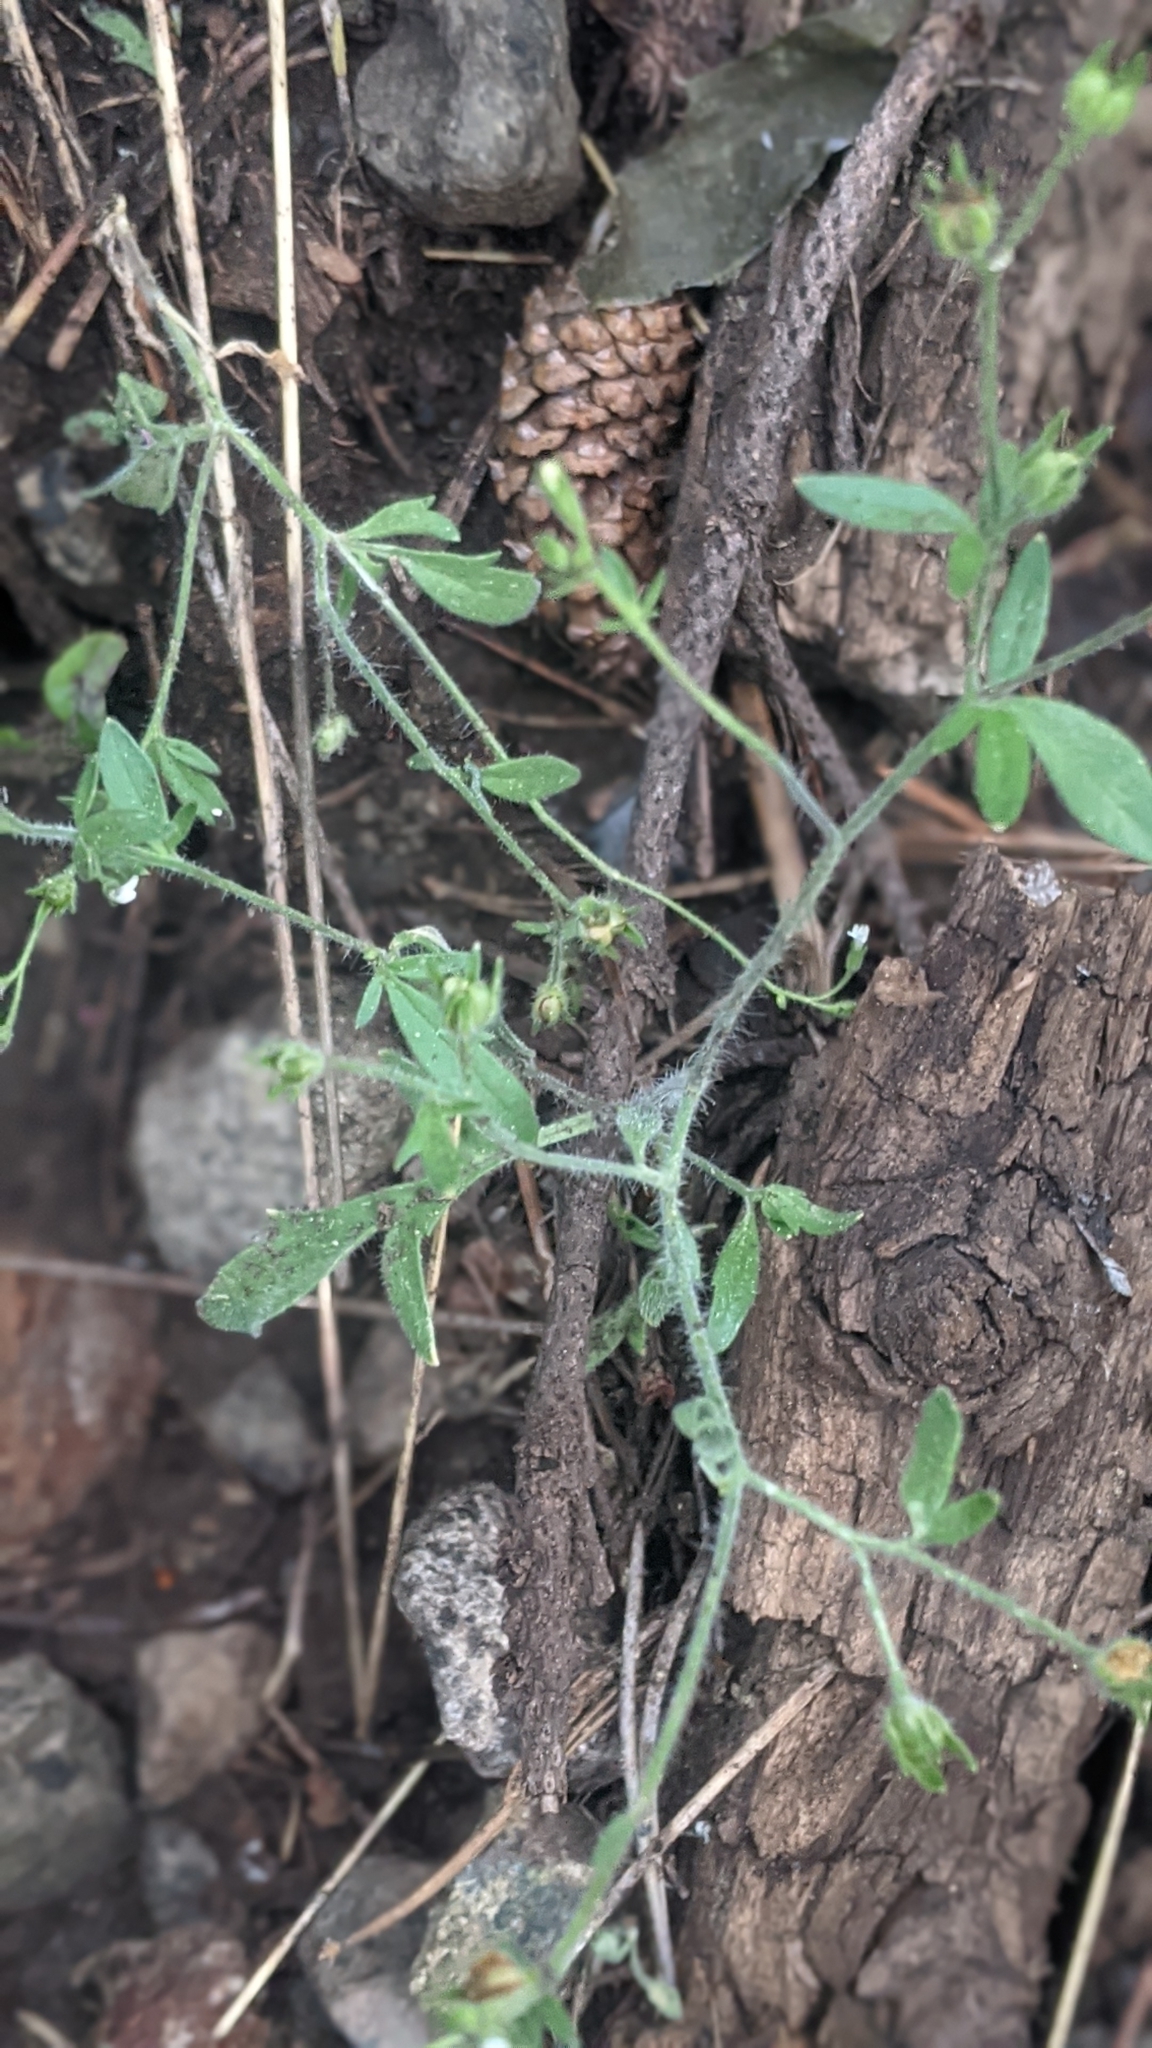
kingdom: Plantae
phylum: Tracheophyta
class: Magnoliopsida
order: Ericales
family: Polemoniaceae
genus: Allophyllum
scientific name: Allophyllum integrifolium
